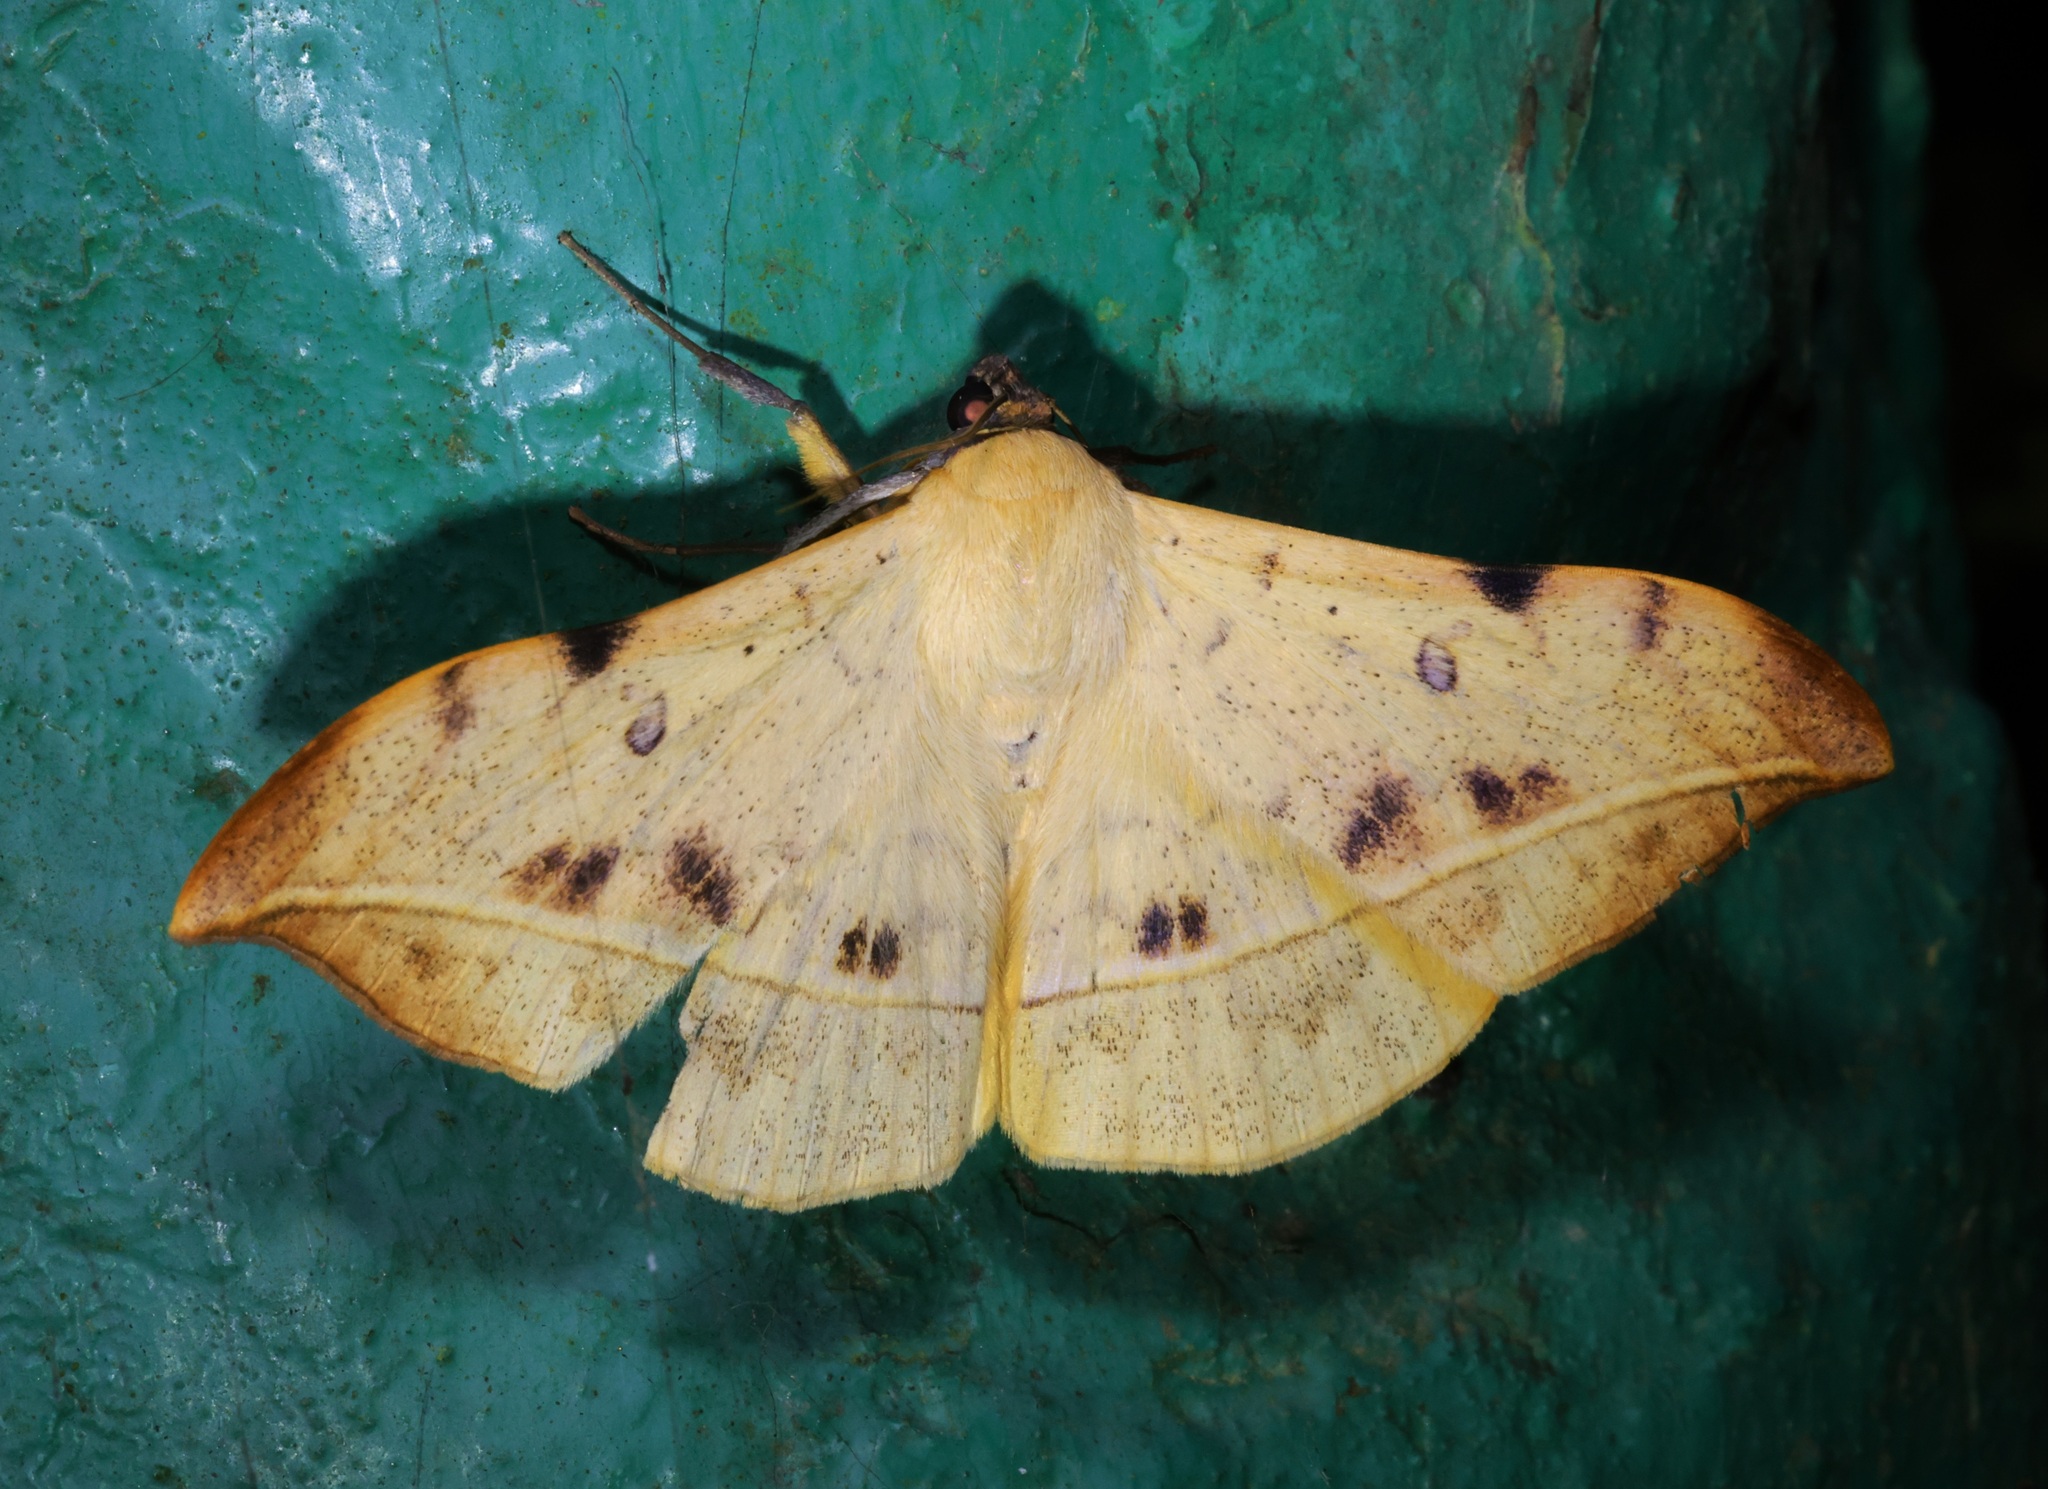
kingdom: Animalia
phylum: Arthropoda
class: Insecta
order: Lepidoptera
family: Erebidae
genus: Hamodes
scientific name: Hamodes propitia
